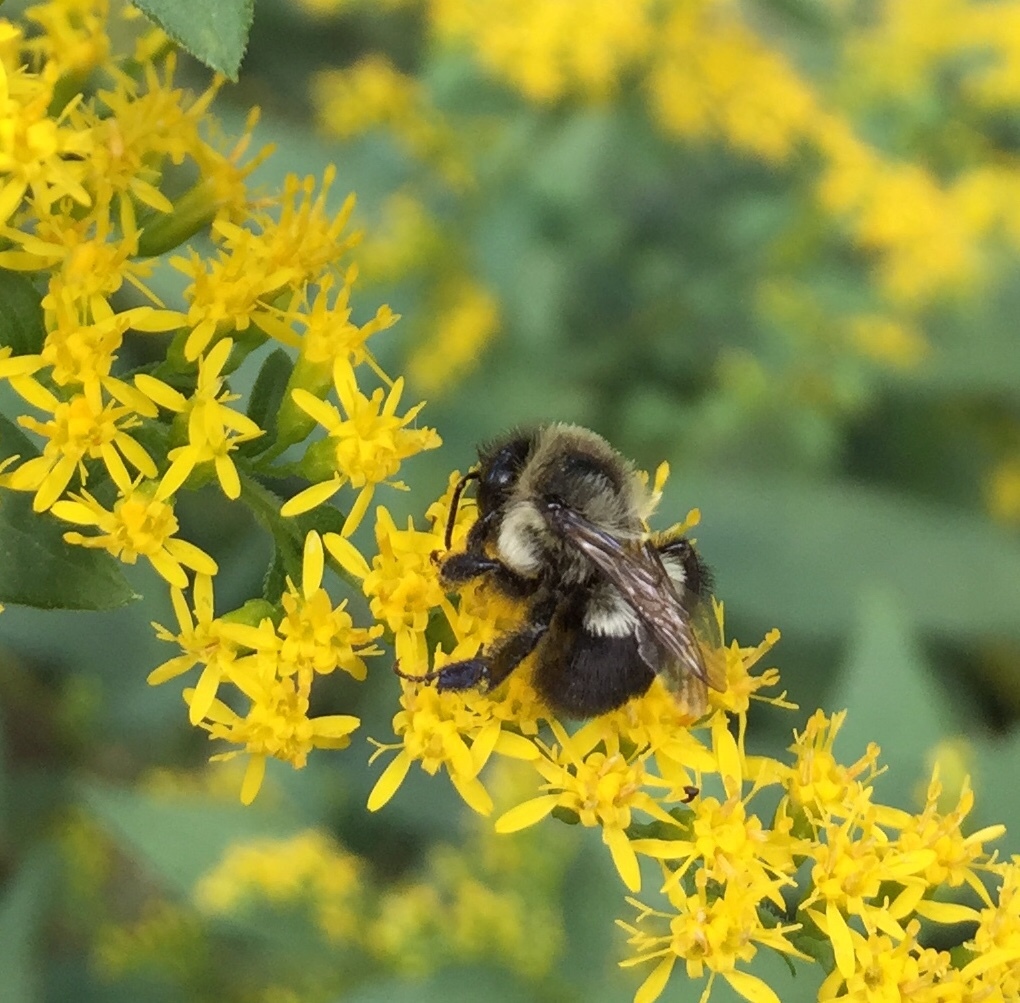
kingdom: Animalia
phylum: Arthropoda
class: Insecta
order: Hymenoptera
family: Apidae
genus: Bombus
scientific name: Bombus impatiens
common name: Common eastern bumble bee
